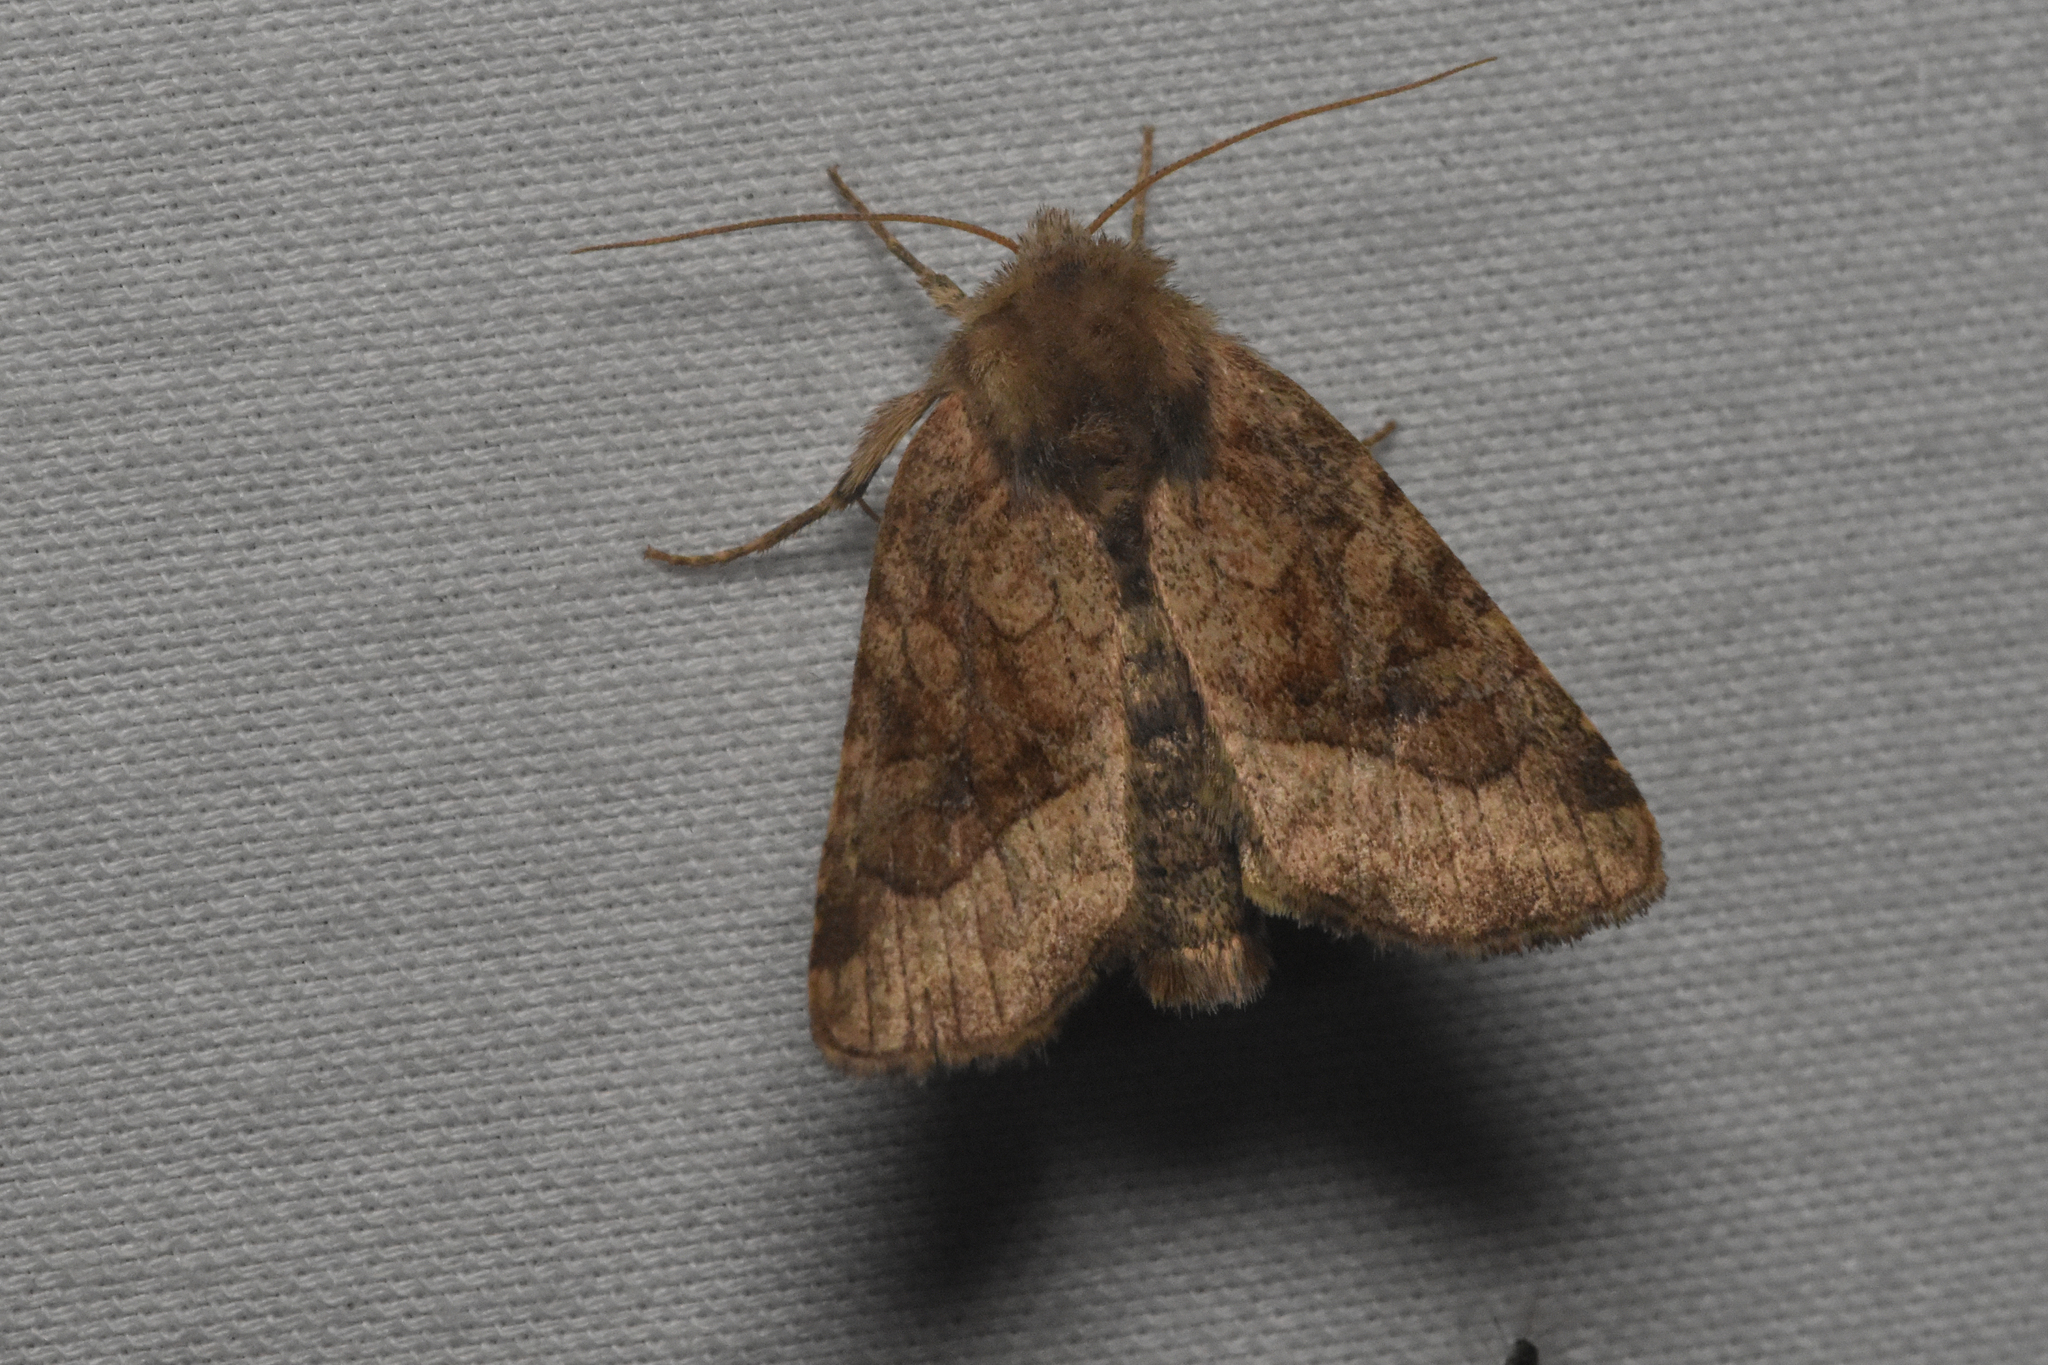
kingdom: Animalia
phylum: Arthropoda
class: Insecta
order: Lepidoptera
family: Noctuidae
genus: Lacinipolia
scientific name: Lacinipolia lorea
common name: Bridled arches moth
